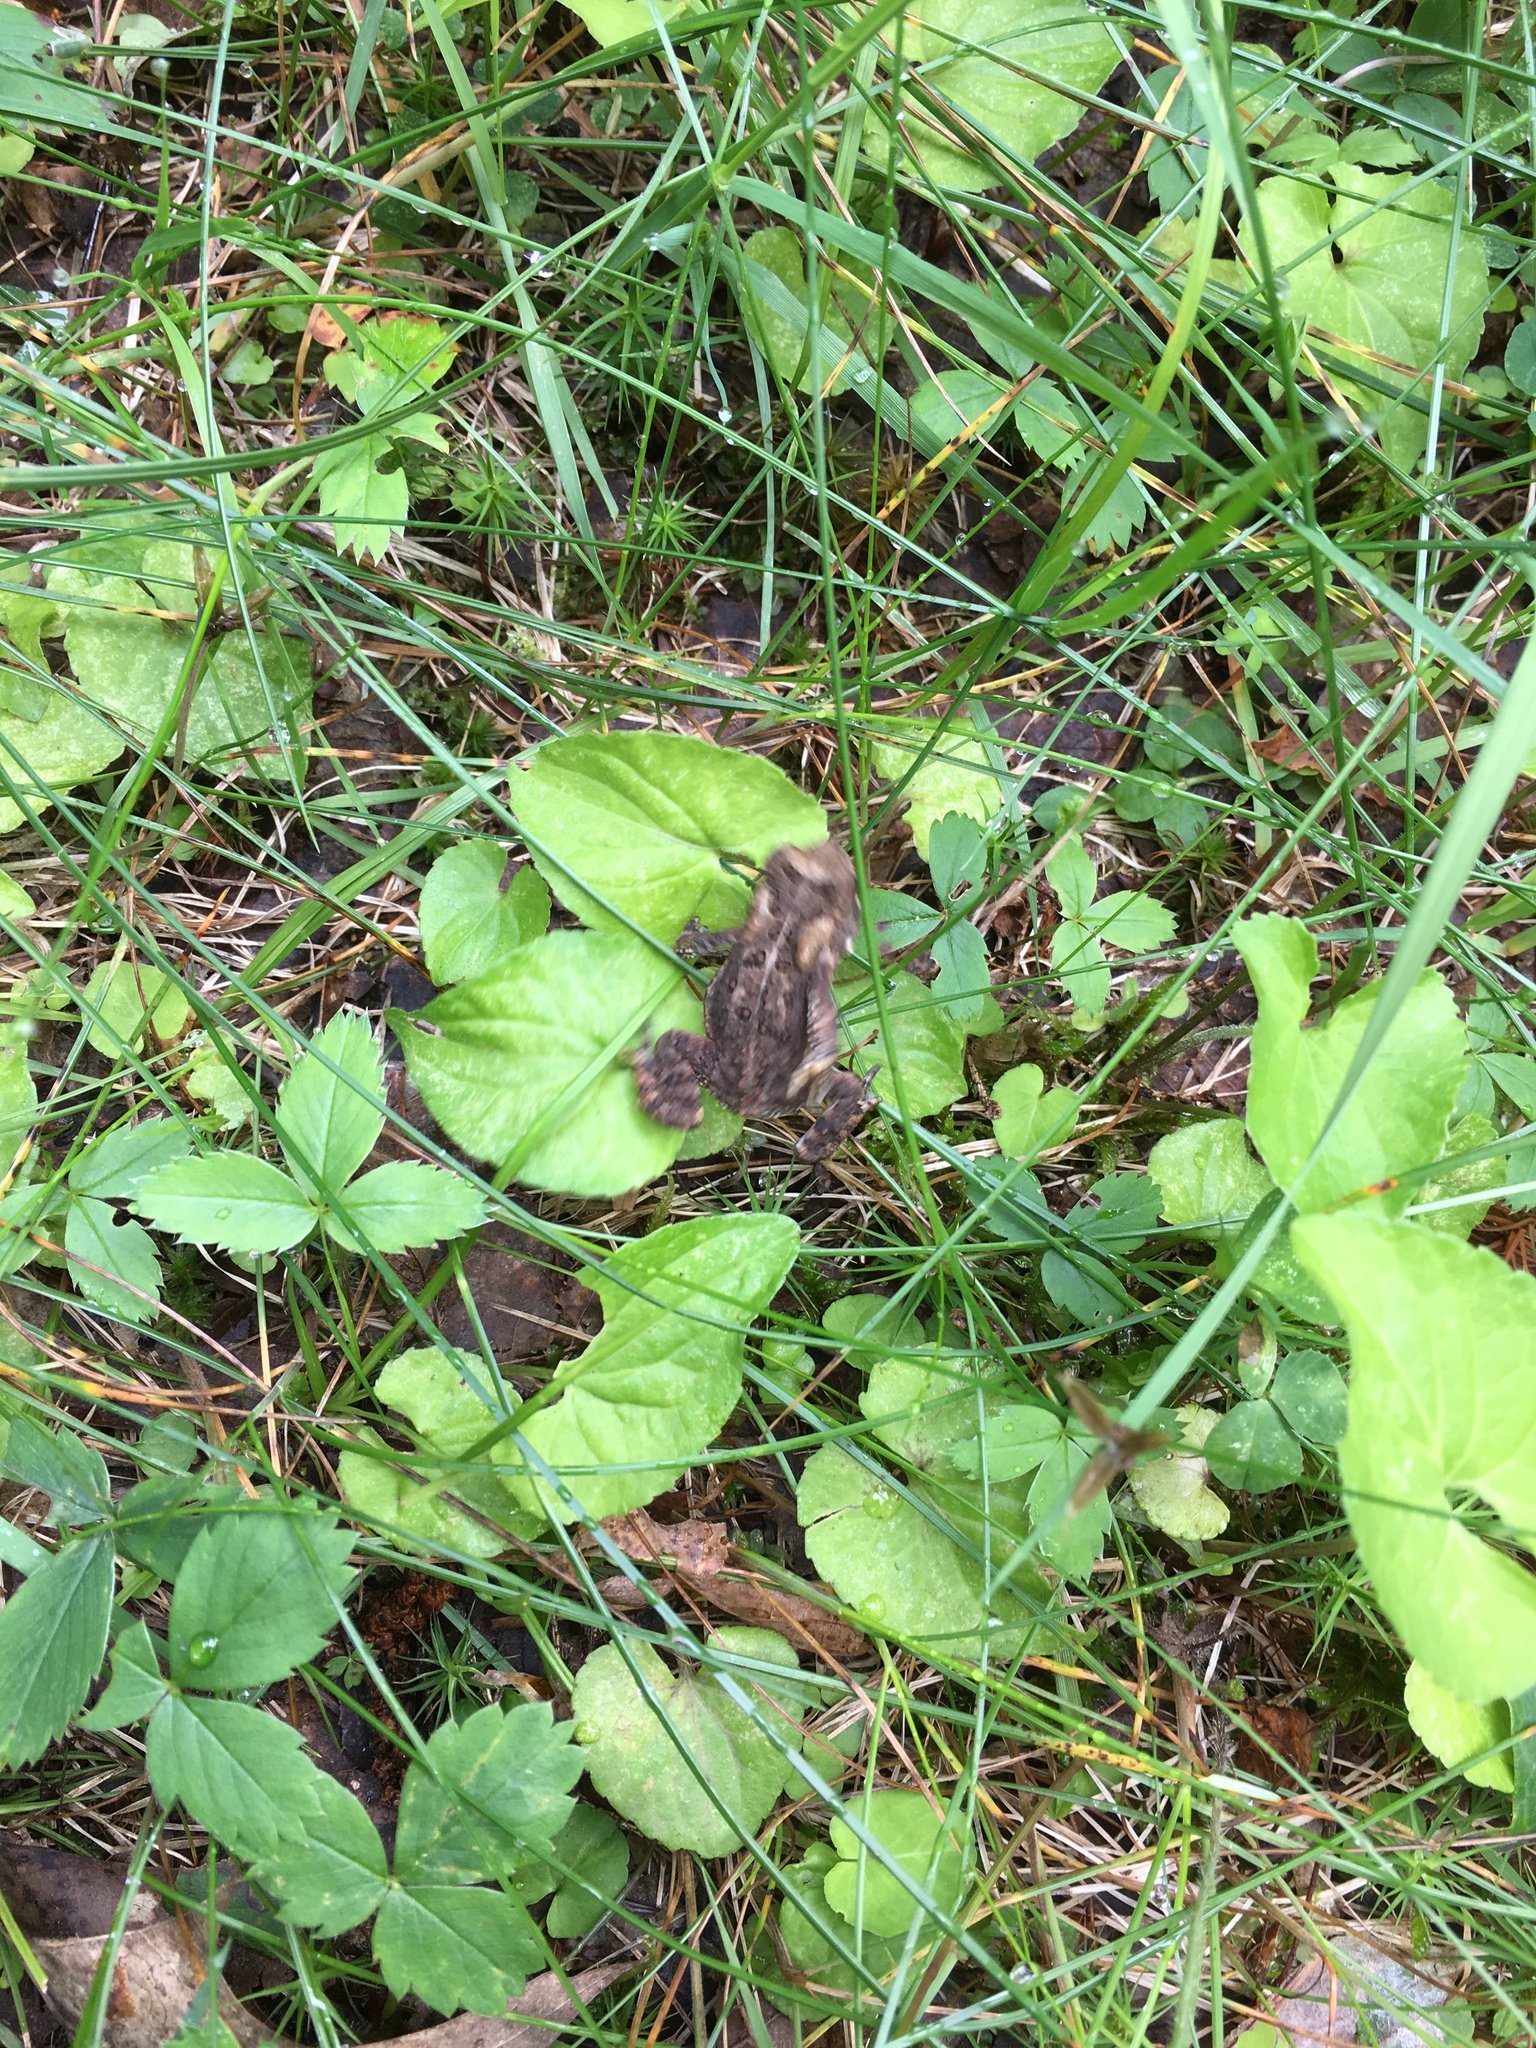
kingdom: Animalia
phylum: Chordata
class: Amphibia
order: Anura
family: Bufonidae
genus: Anaxyrus
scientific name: Anaxyrus americanus
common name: American toad
